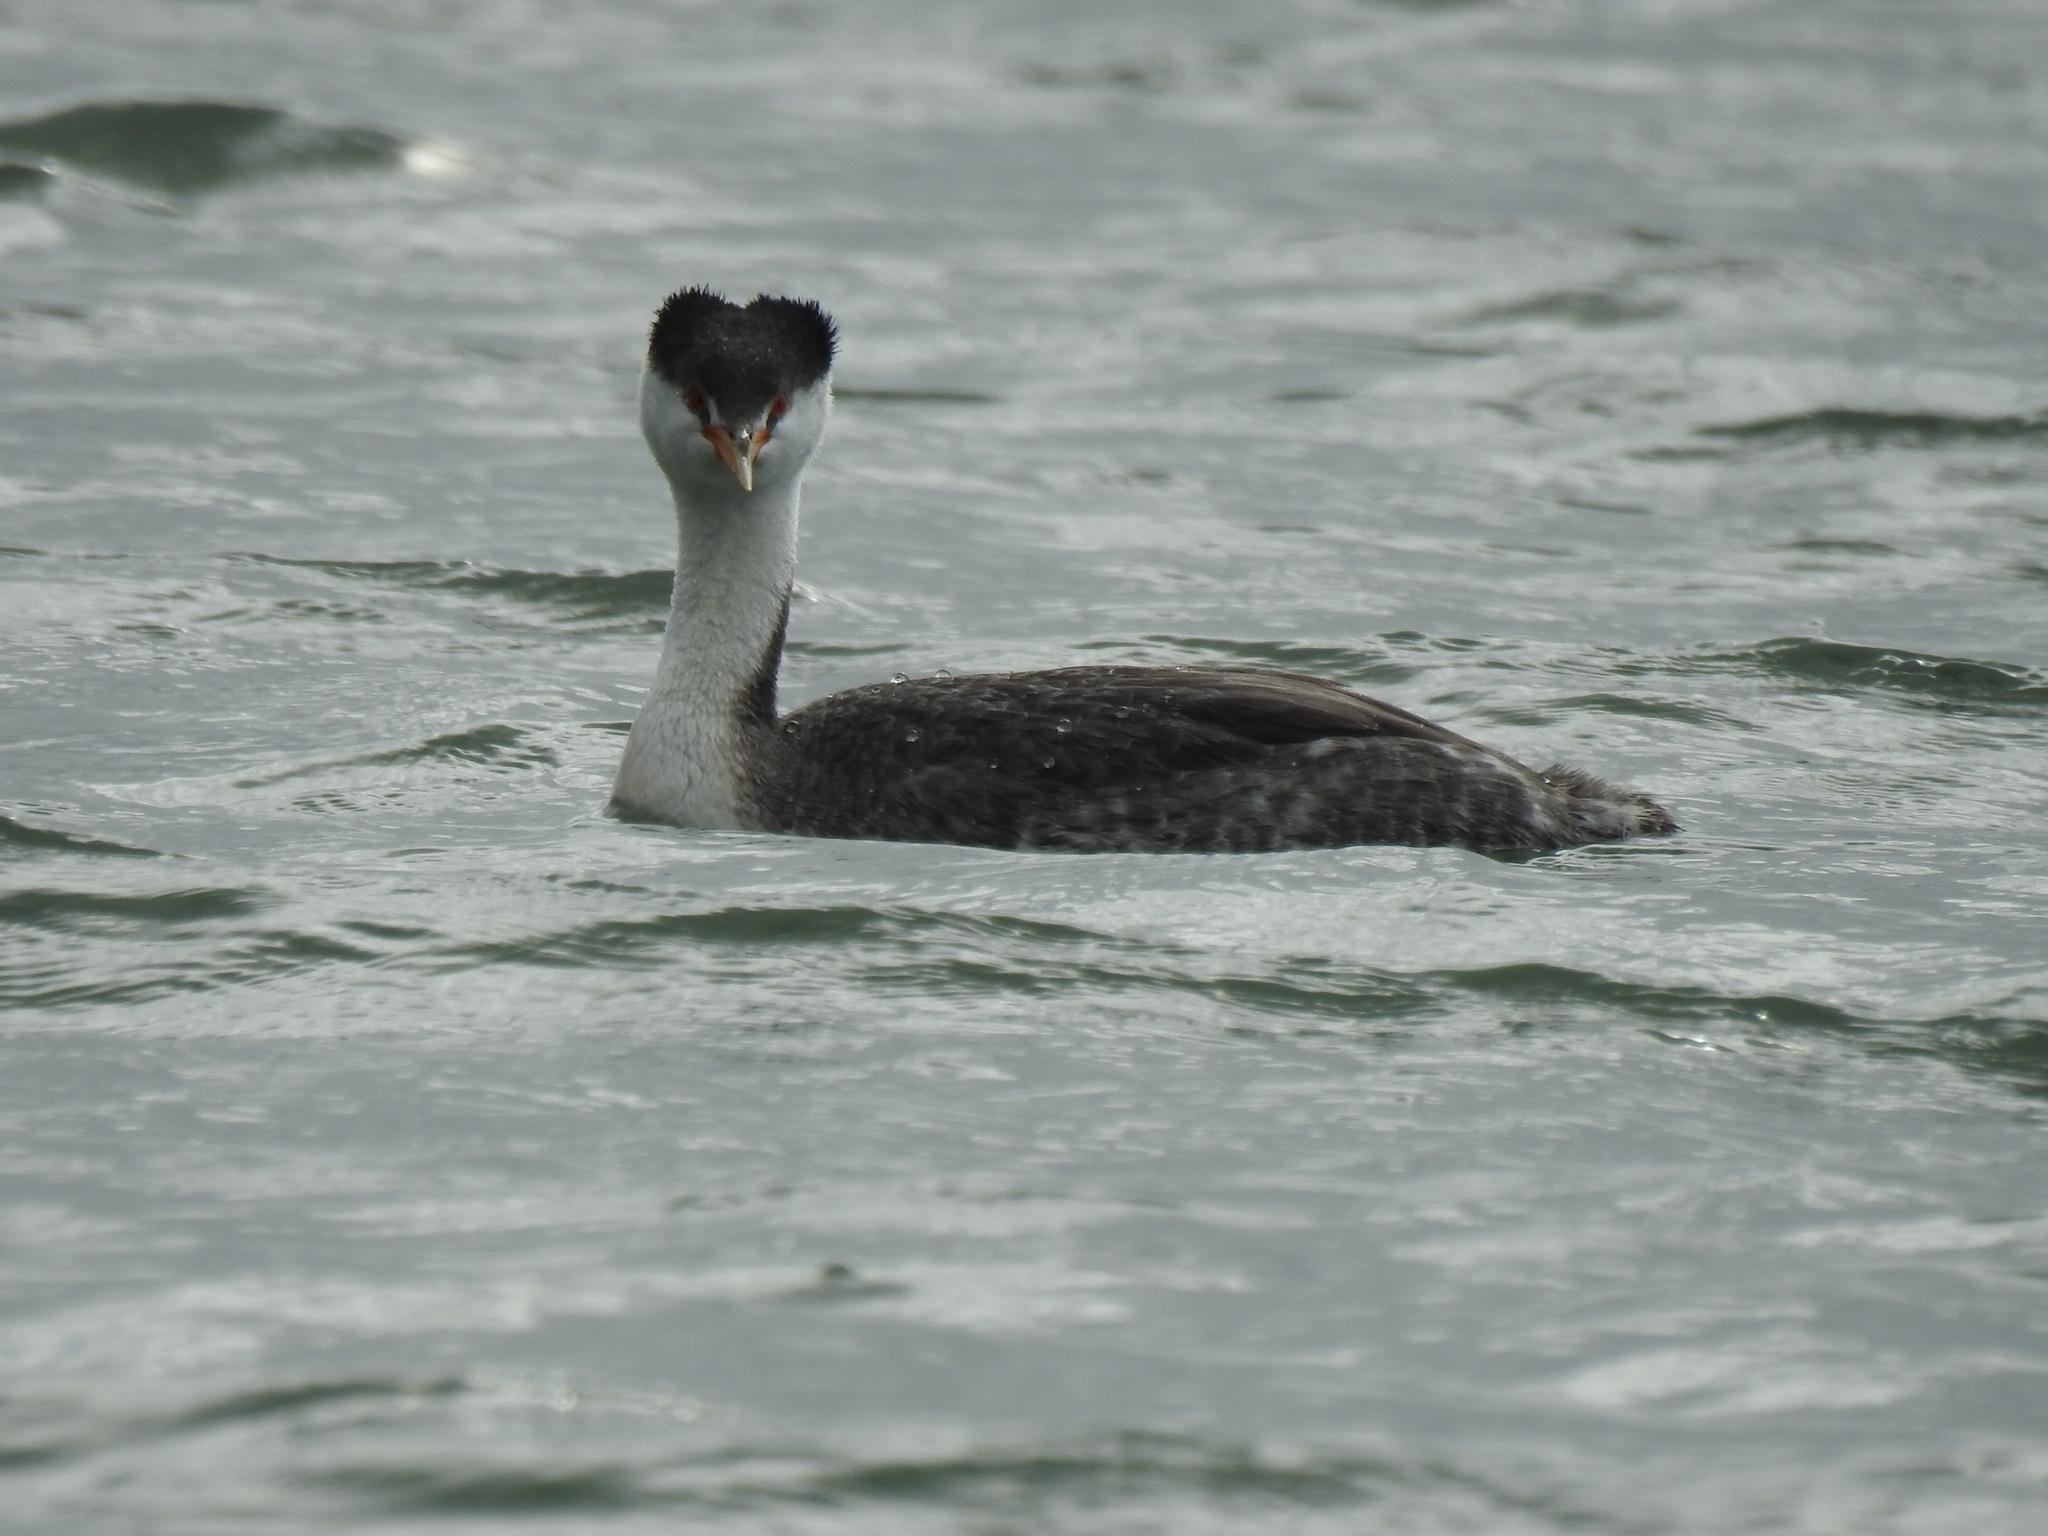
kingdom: Animalia
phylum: Chordata
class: Aves
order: Podicipediformes
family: Podicipedidae
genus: Aechmophorus
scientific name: Aechmophorus clarkii
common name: Clark's grebe
